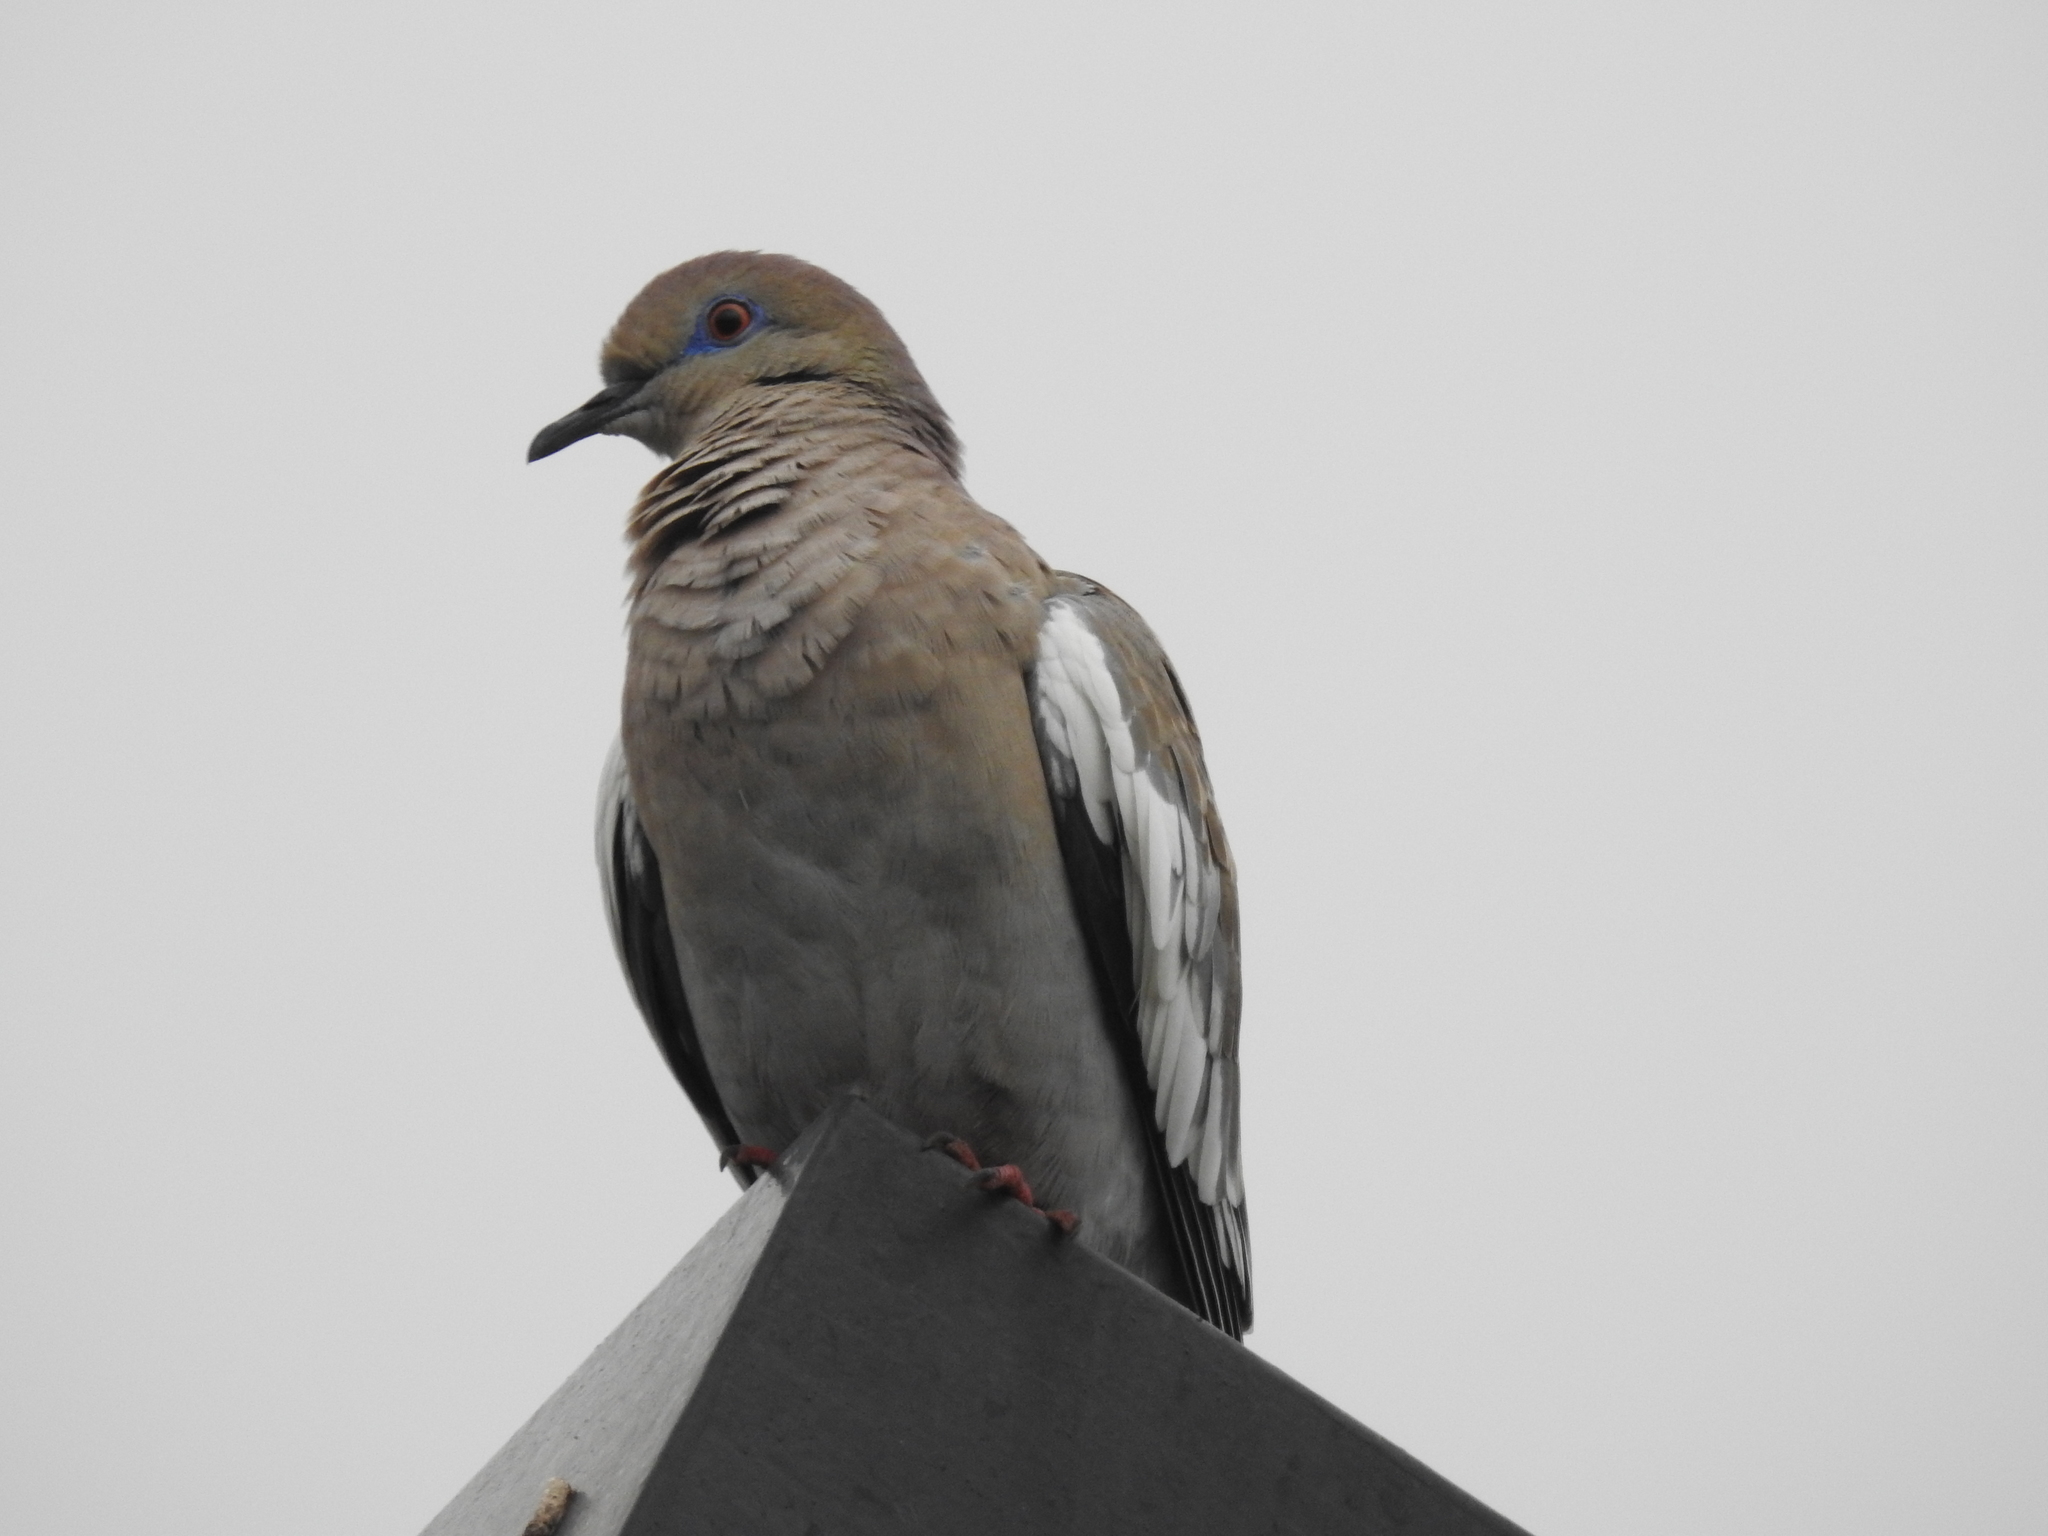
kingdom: Animalia
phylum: Chordata
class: Aves
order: Columbiformes
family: Columbidae
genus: Zenaida
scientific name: Zenaida asiatica
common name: White-winged dove
